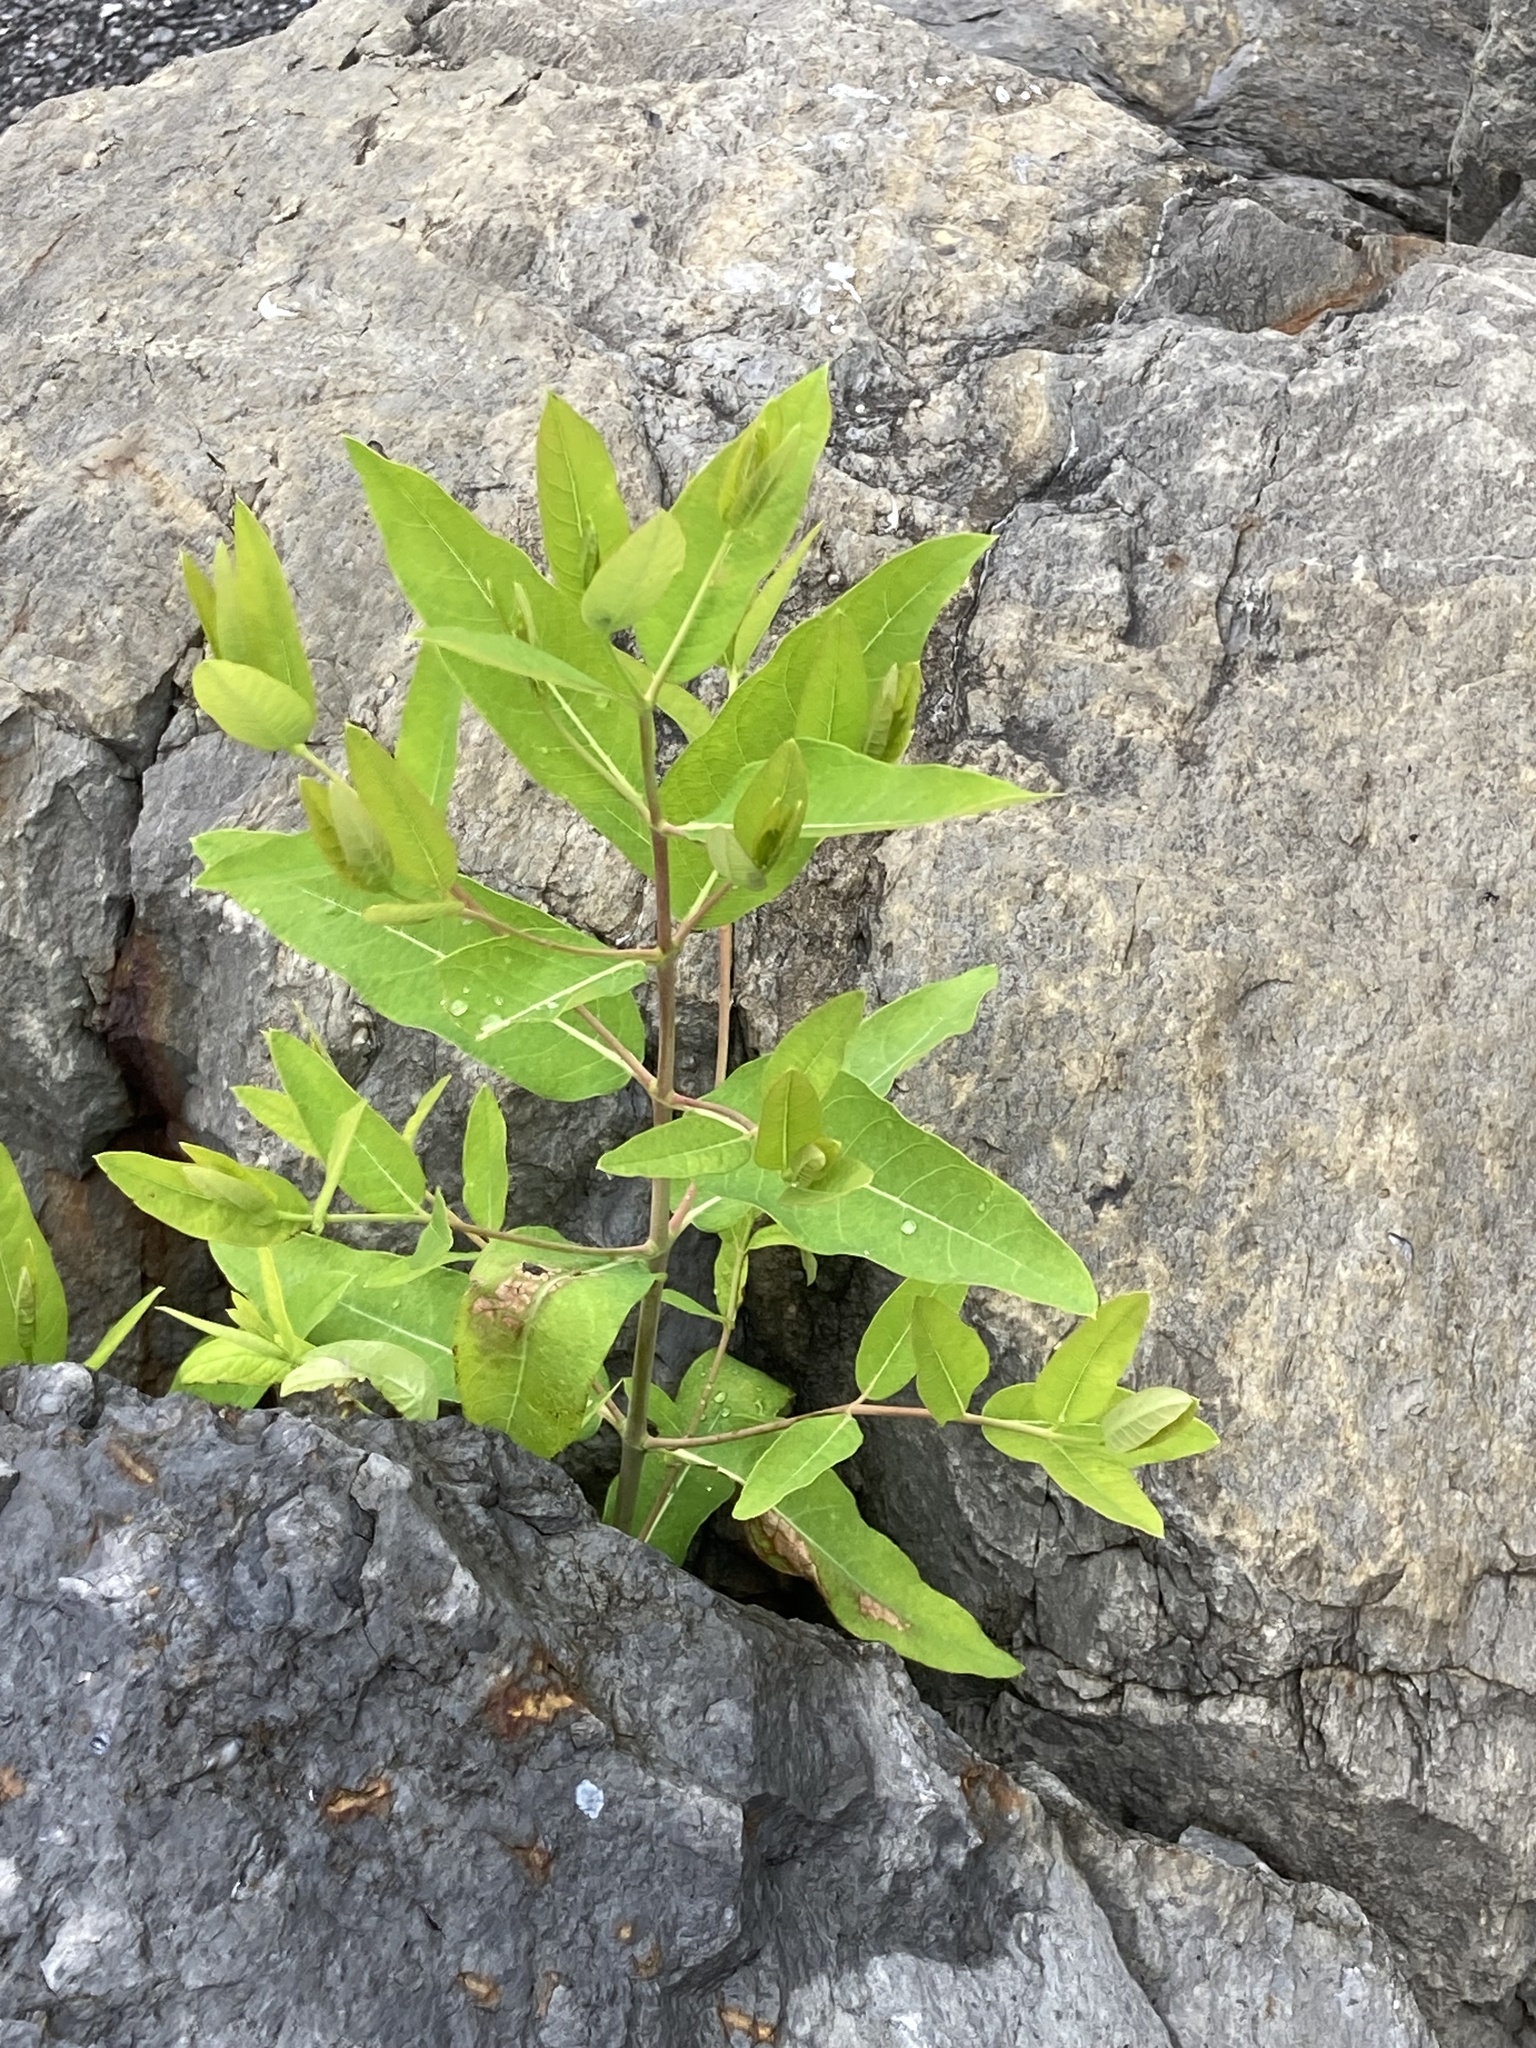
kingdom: Plantae
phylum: Tracheophyta
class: Magnoliopsida
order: Gentianales
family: Apocynaceae
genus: Apocynum
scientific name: Apocynum cannabinum
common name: Hemp dogbane
